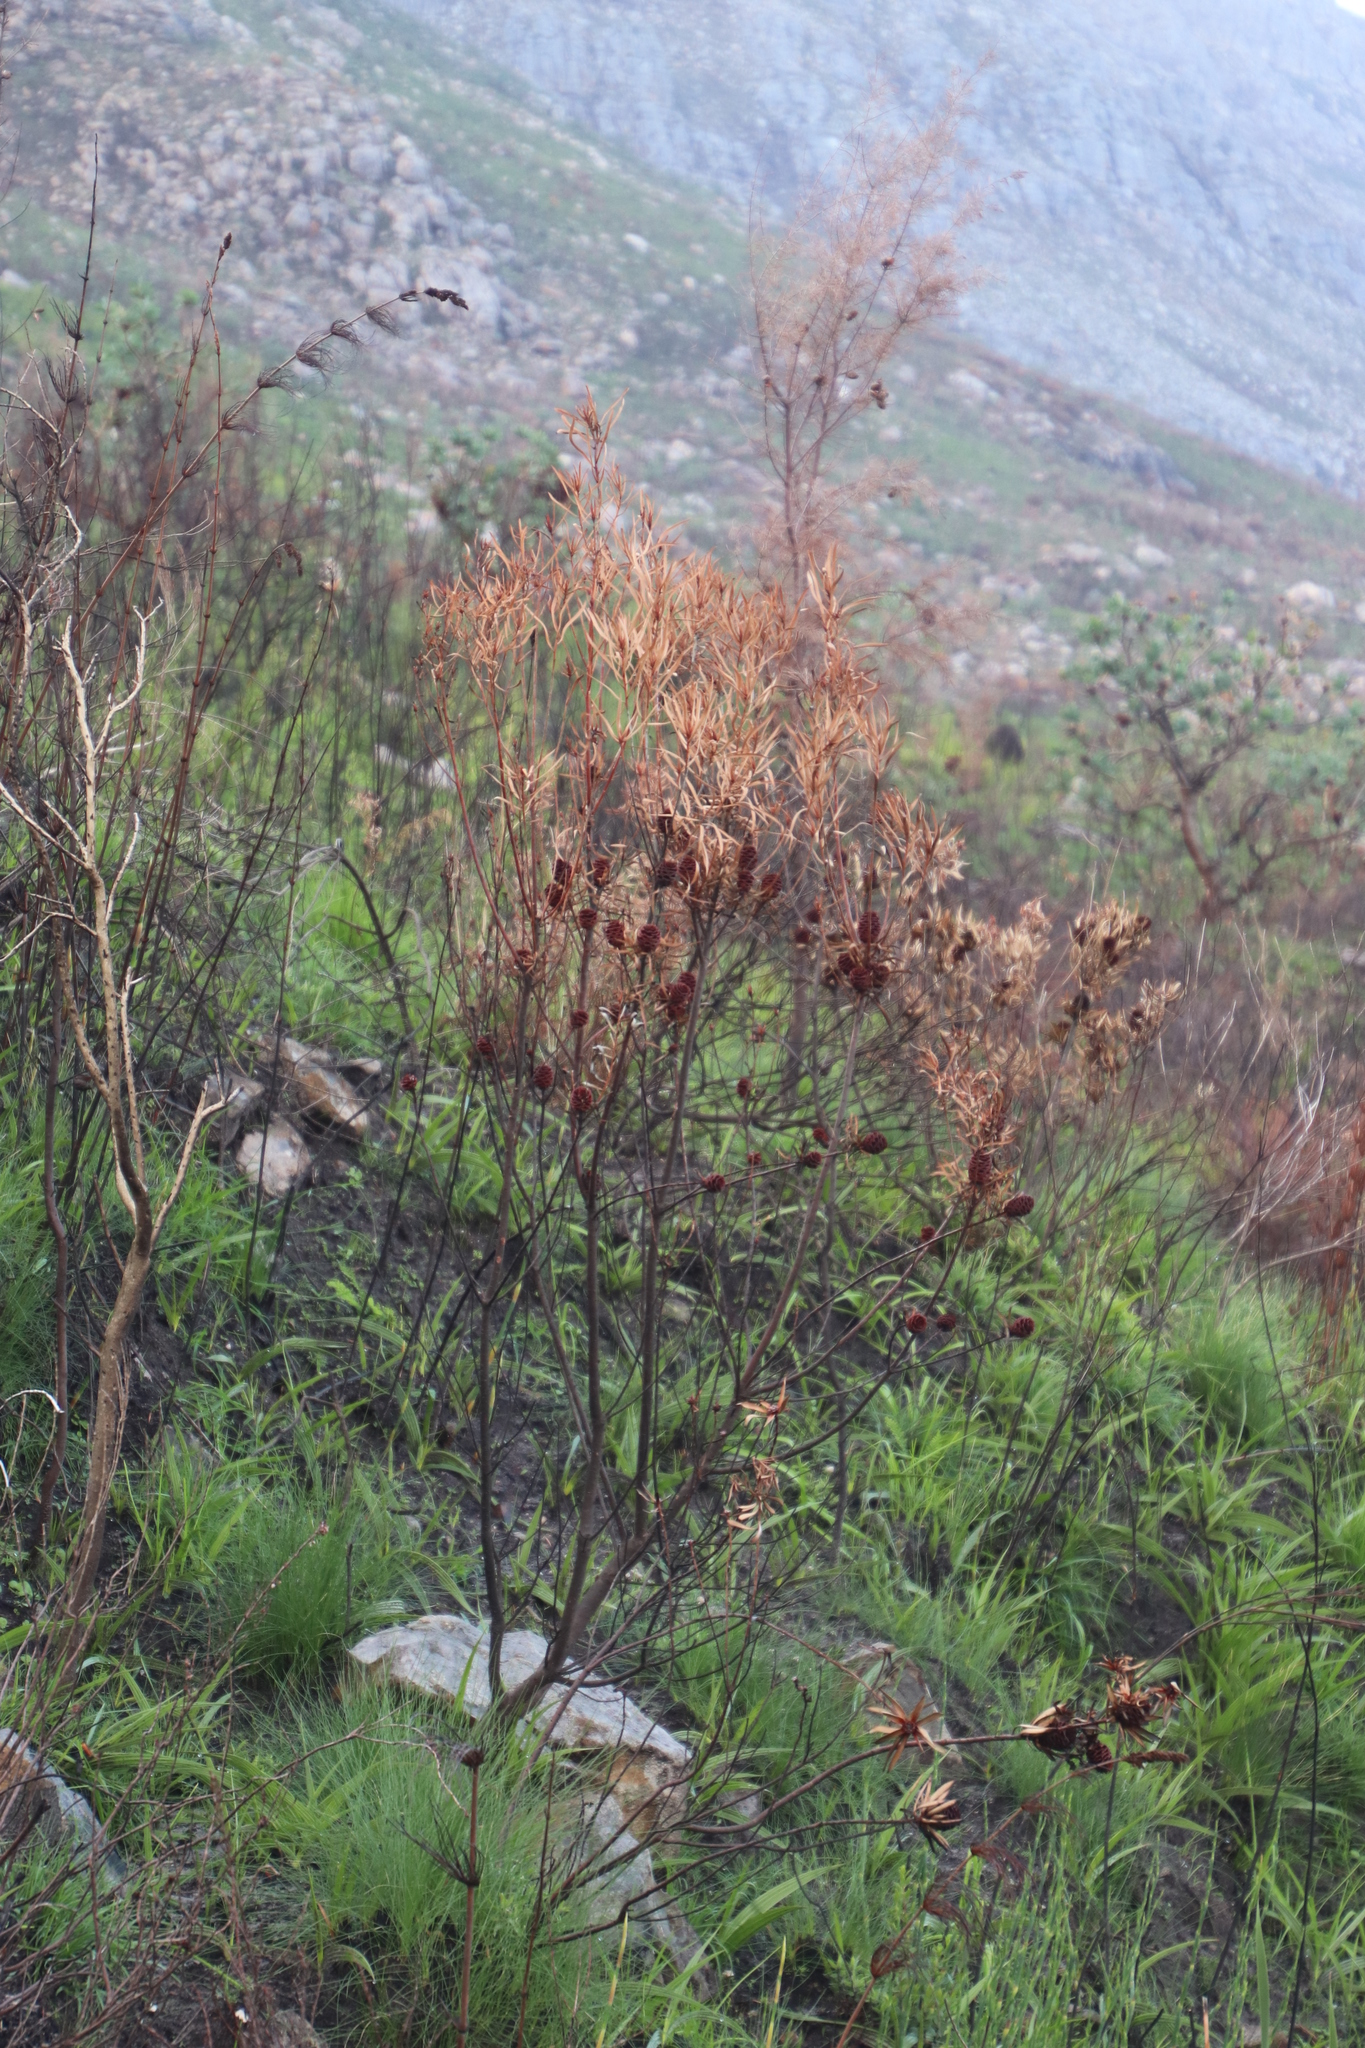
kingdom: Plantae
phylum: Tracheophyta
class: Magnoliopsida
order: Proteales
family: Proteaceae
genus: Leucadendron
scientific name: Leucadendron salicifolium
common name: Common stream conebush
